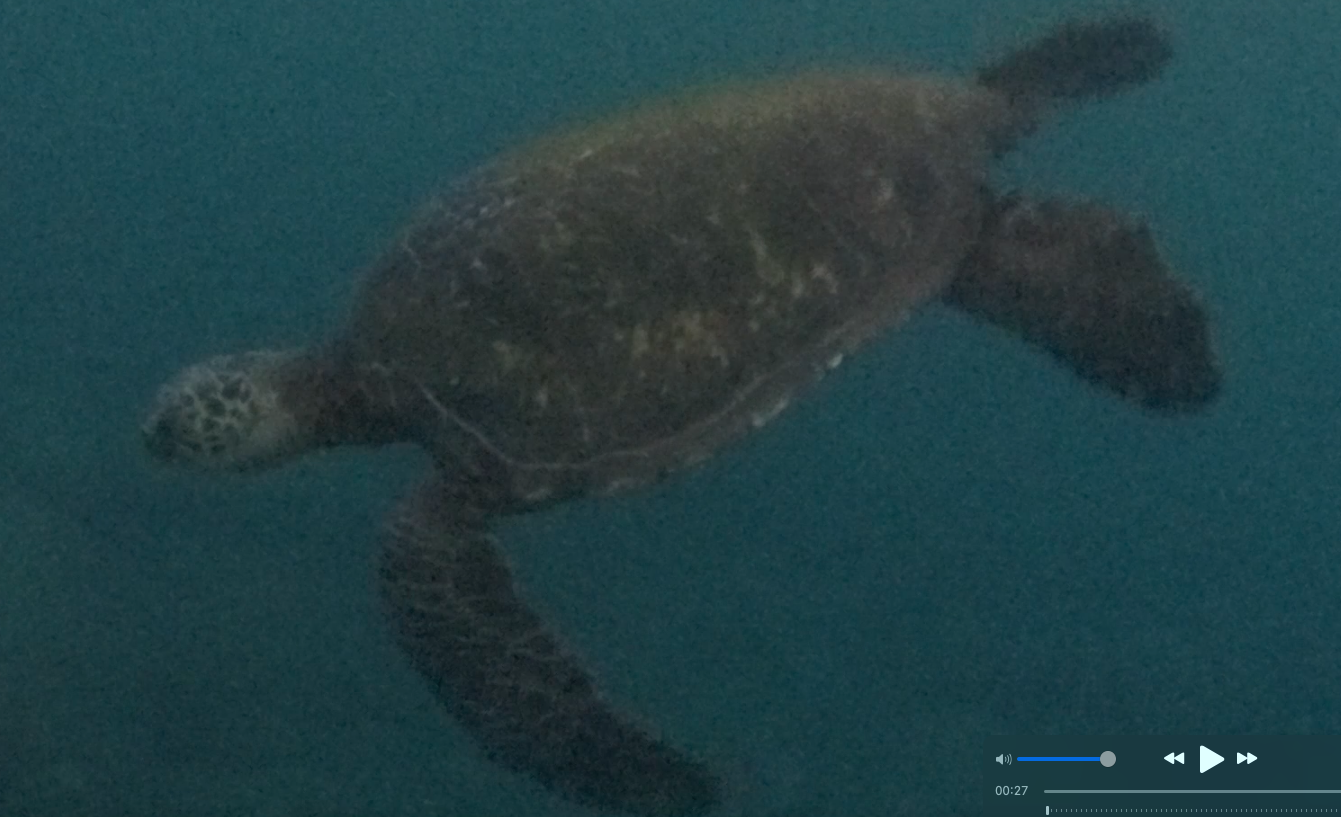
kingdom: Animalia
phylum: Chordata
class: Testudines
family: Cheloniidae
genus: Chelonia
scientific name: Chelonia mydas
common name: Green turtle
